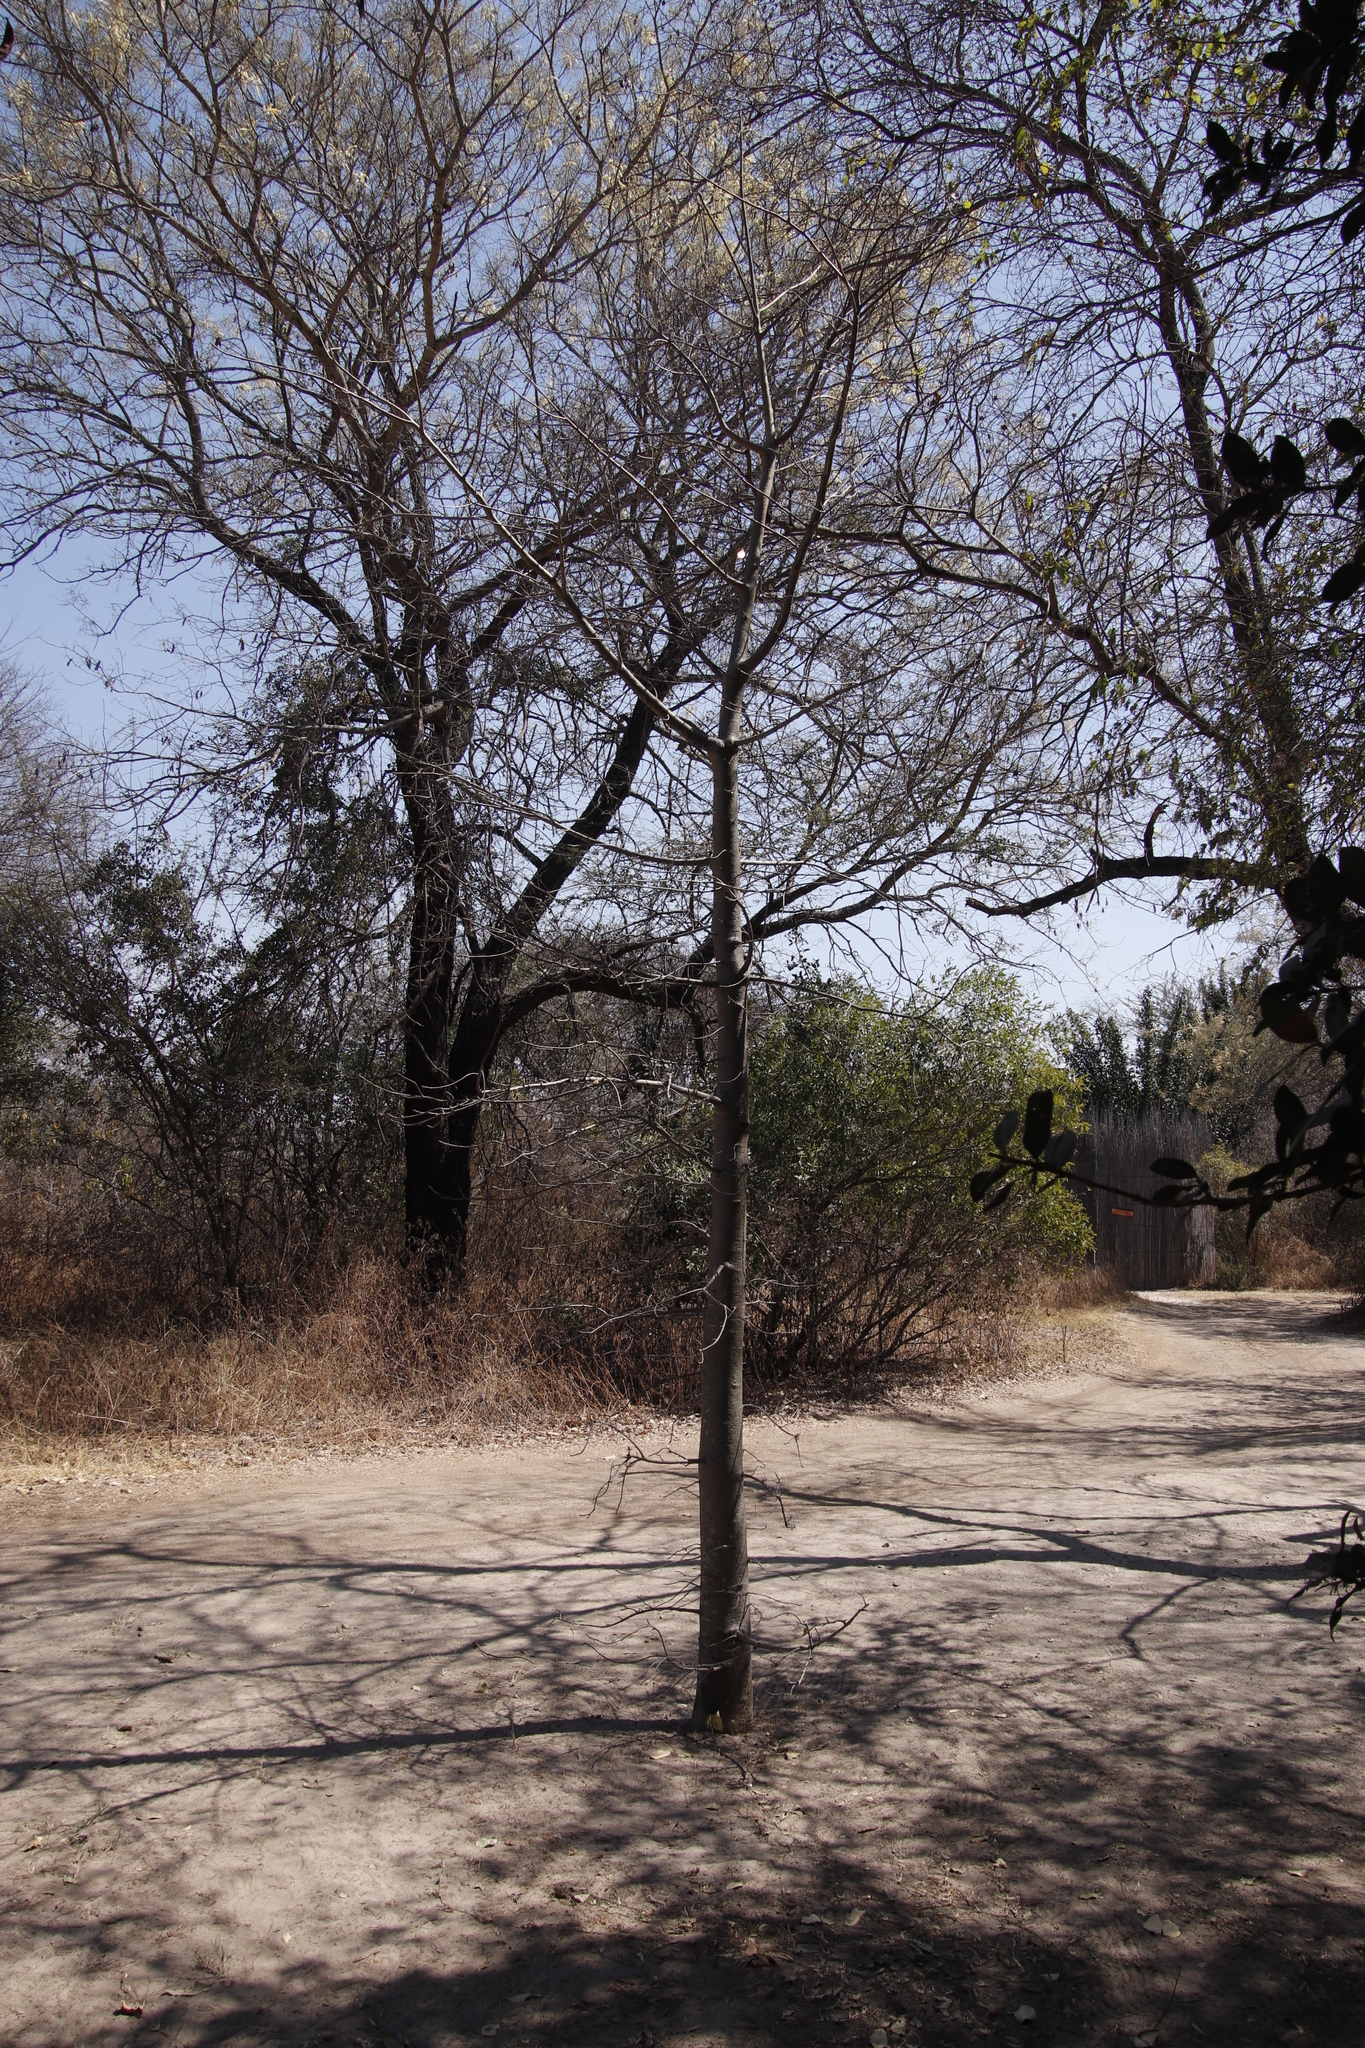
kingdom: Plantae
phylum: Tracheophyta
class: Magnoliopsida
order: Malvales
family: Malvaceae
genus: Adansonia
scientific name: Adansonia digitata
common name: Dead-rat-tree
